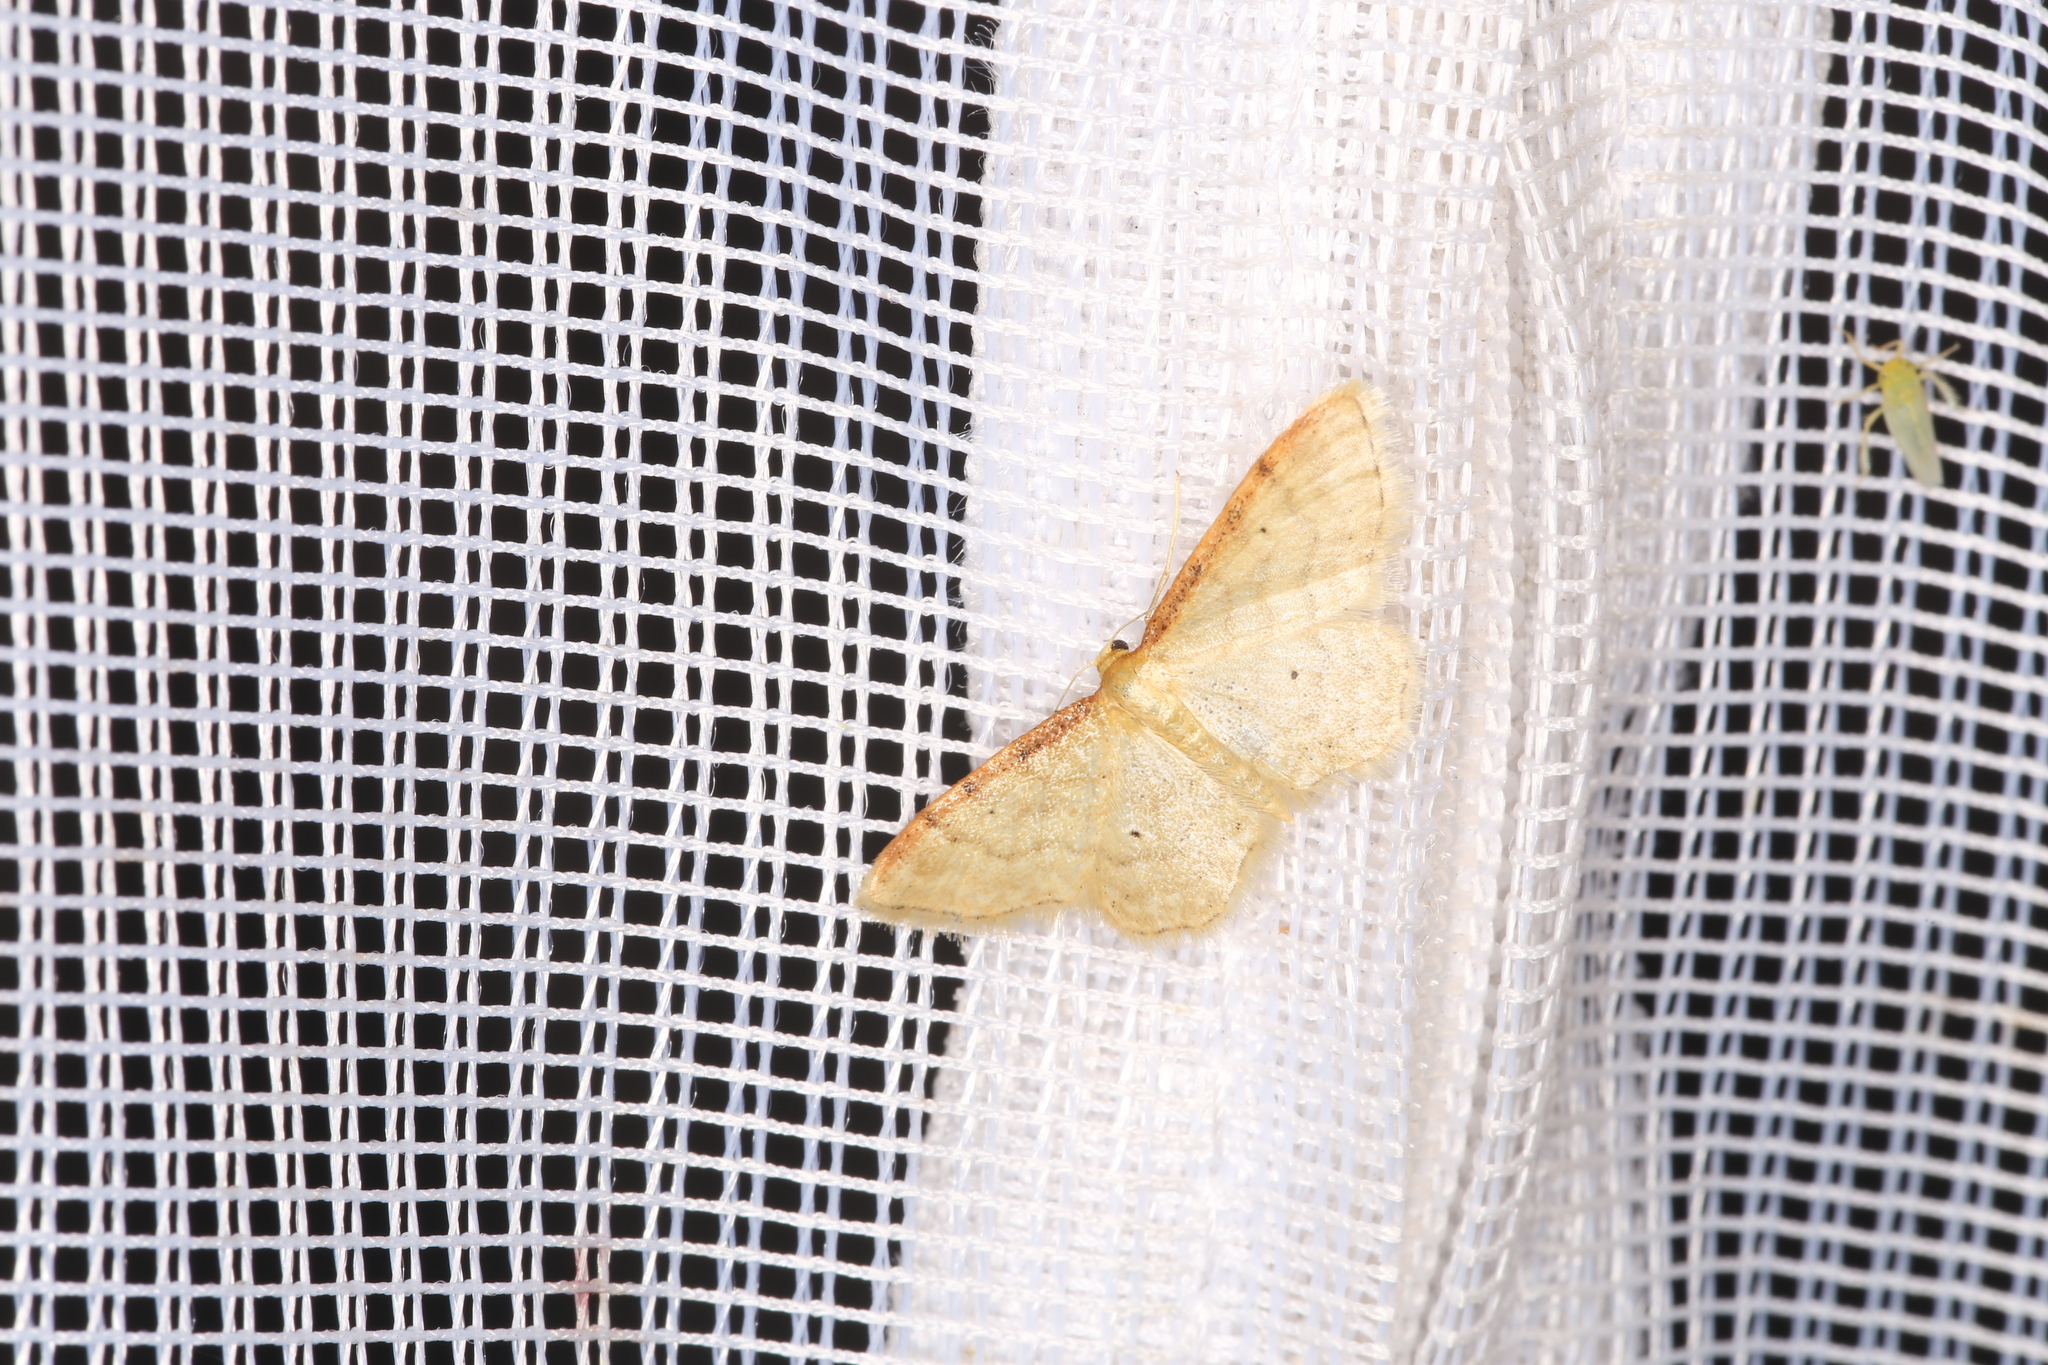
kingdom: Animalia
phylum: Arthropoda
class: Insecta
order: Lepidoptera
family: Geometridae
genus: Idaea
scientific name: Idaea humiliata
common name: Isle of wight wave
